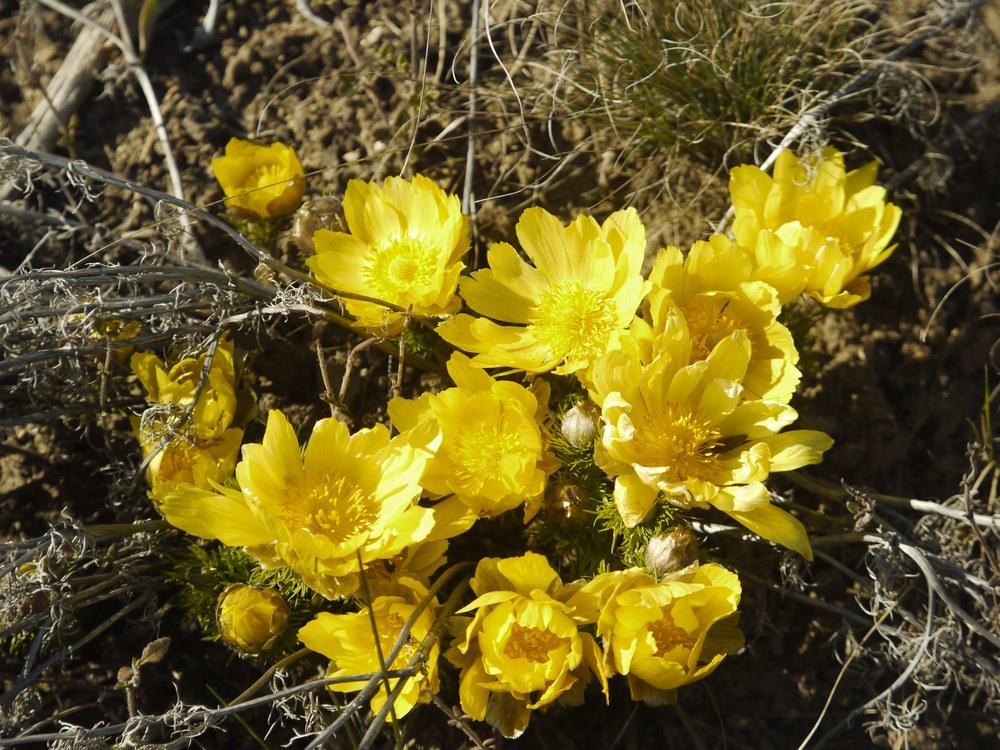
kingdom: Plantae
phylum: Tracheophyta
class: Magnoliopsida
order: Ranunculales
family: Ranunculaceae
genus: Adonis
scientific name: Adonis vernalis
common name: Yellow pheasants-eye
